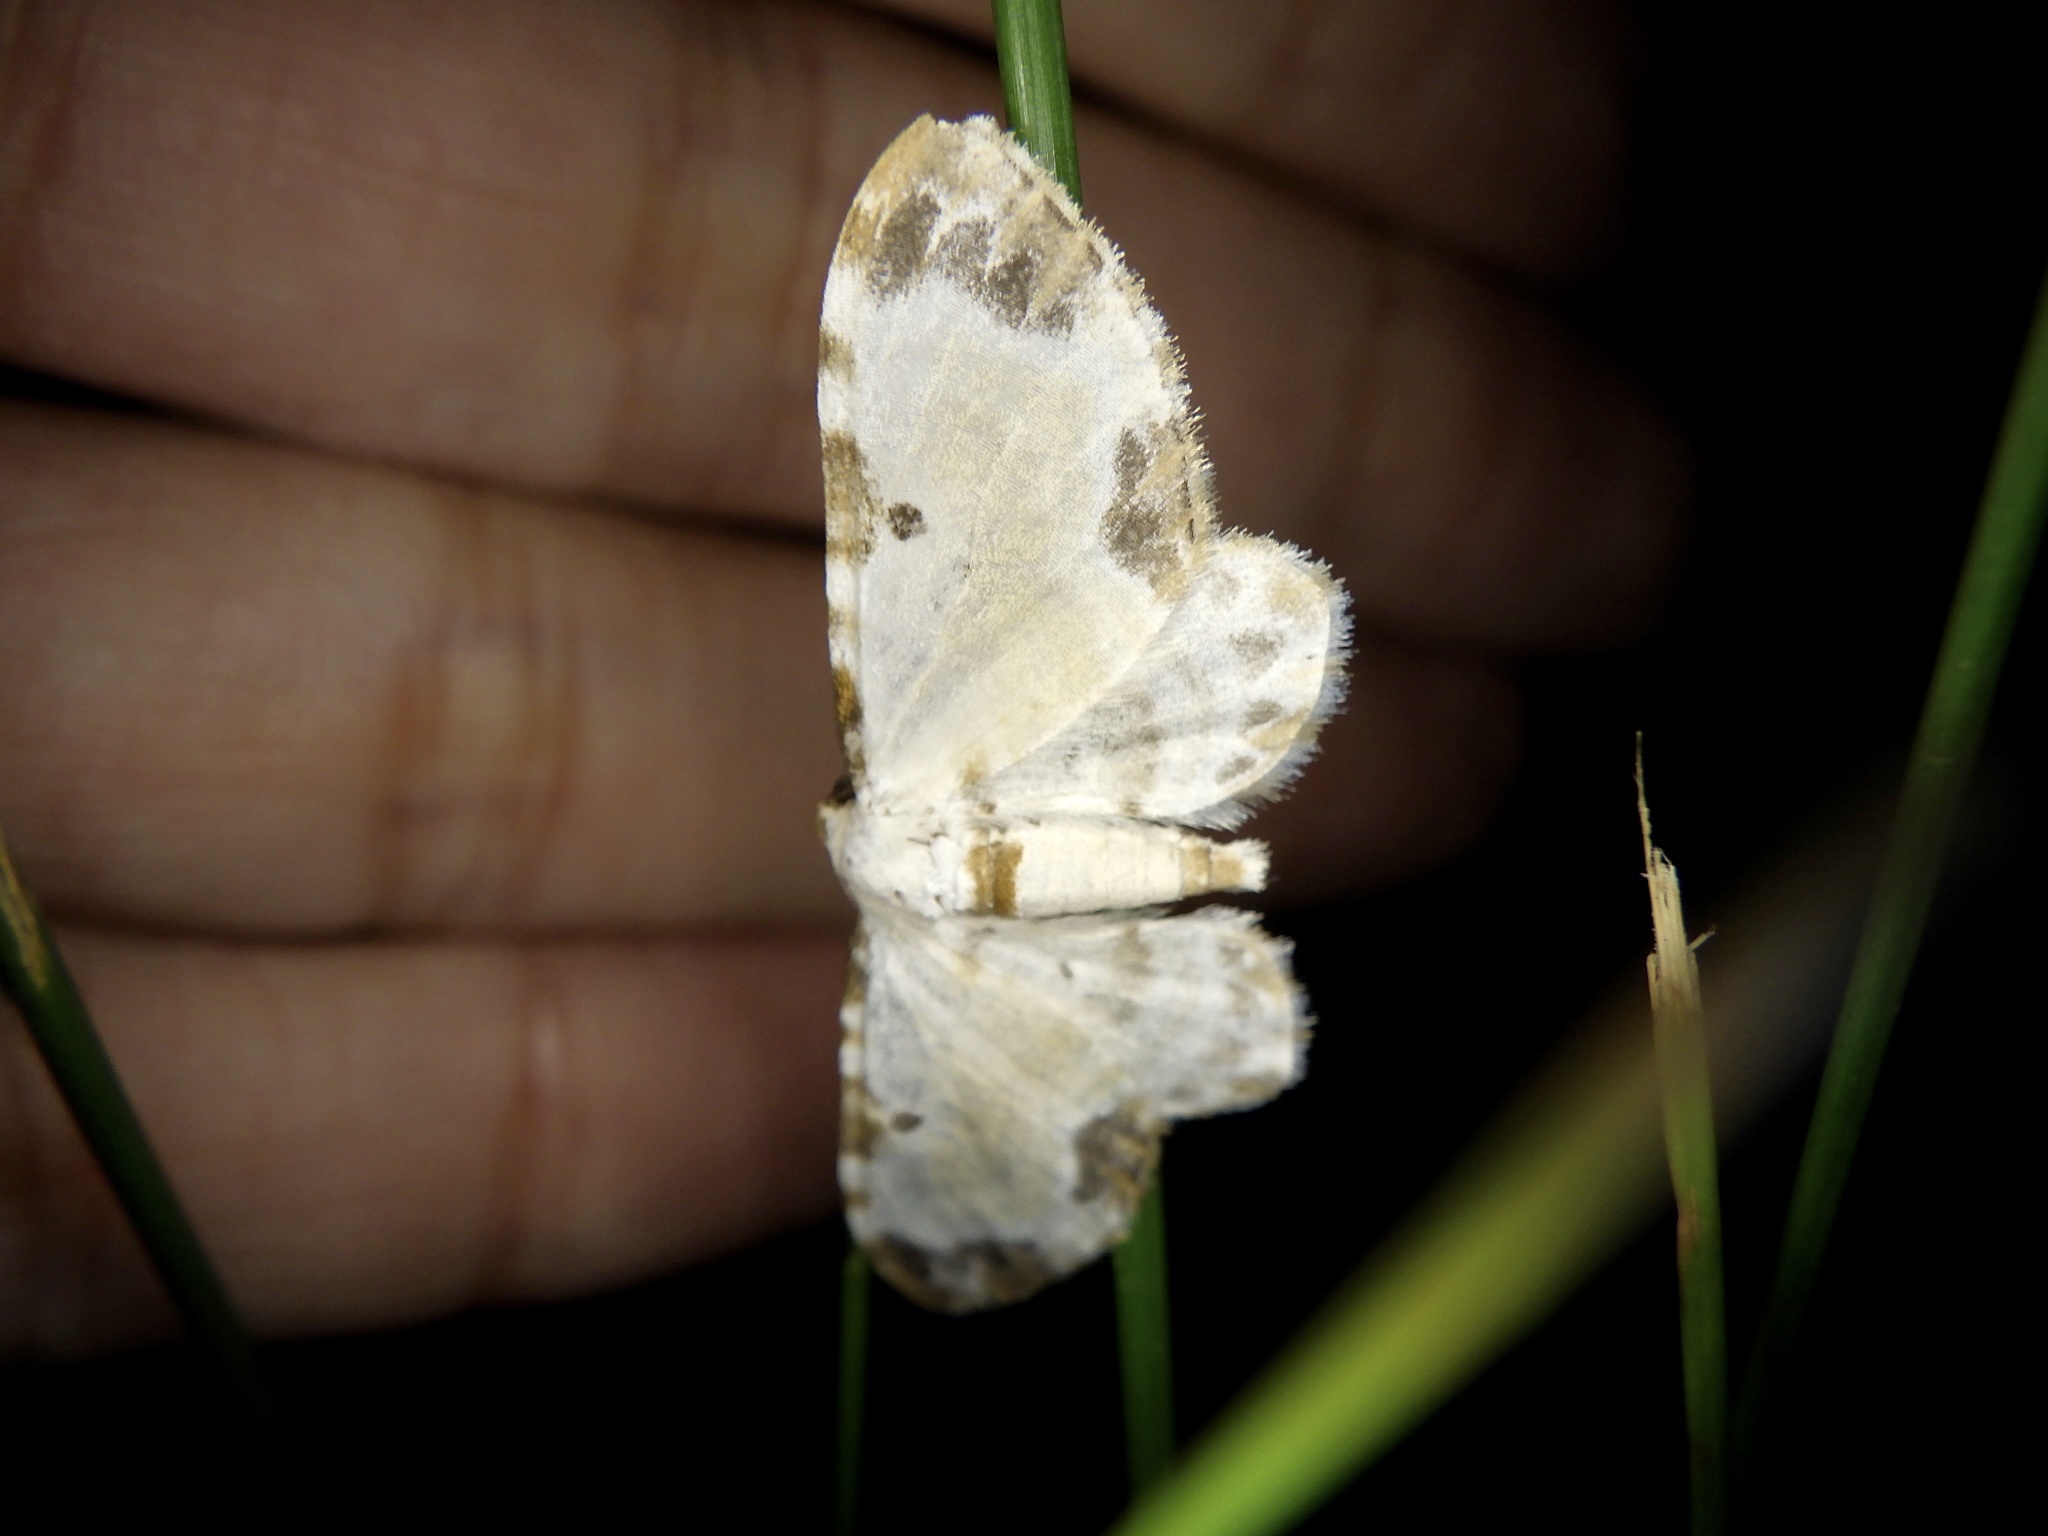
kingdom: Animalia
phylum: Arthropoda
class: Insecta
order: Lepidoptera
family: Geometridae
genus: Tyloptera
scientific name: Tyloptera bella
